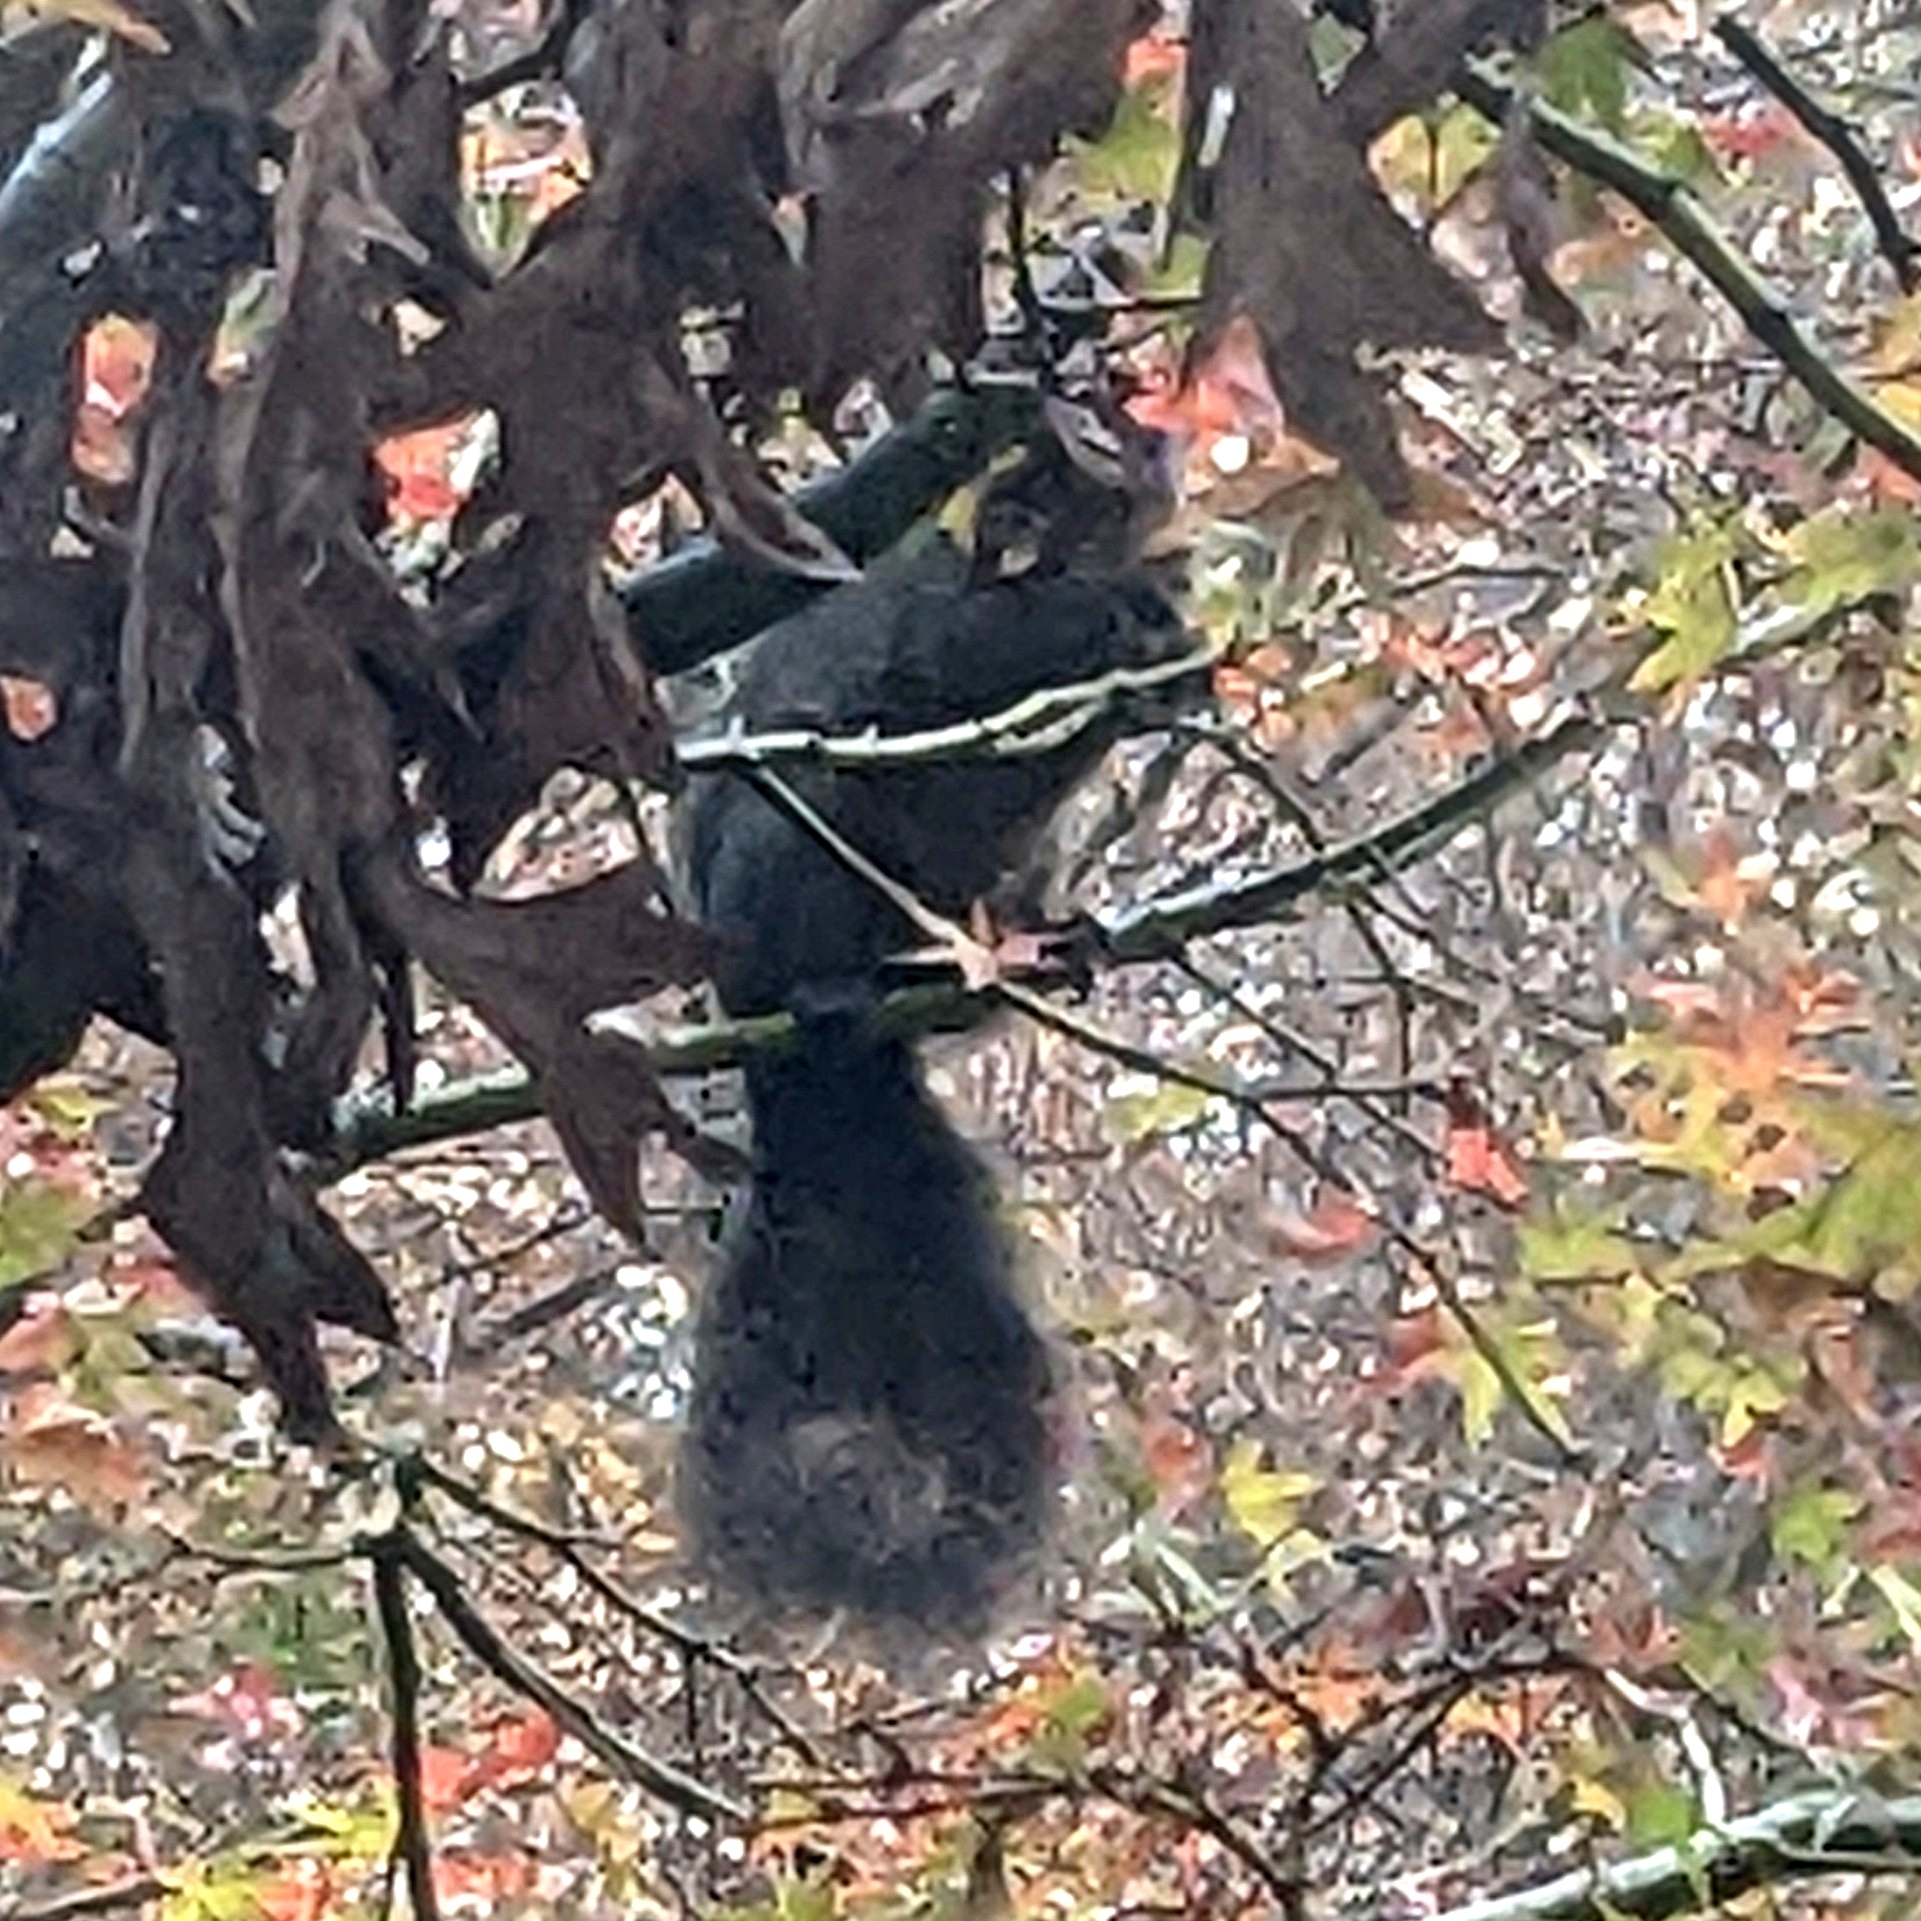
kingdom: Animalia
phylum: Chordata
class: Mammalia
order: Rodentia
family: Sciuridae
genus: Sciurus
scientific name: Sciurus carolinensis
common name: Eastern gray squirrel
